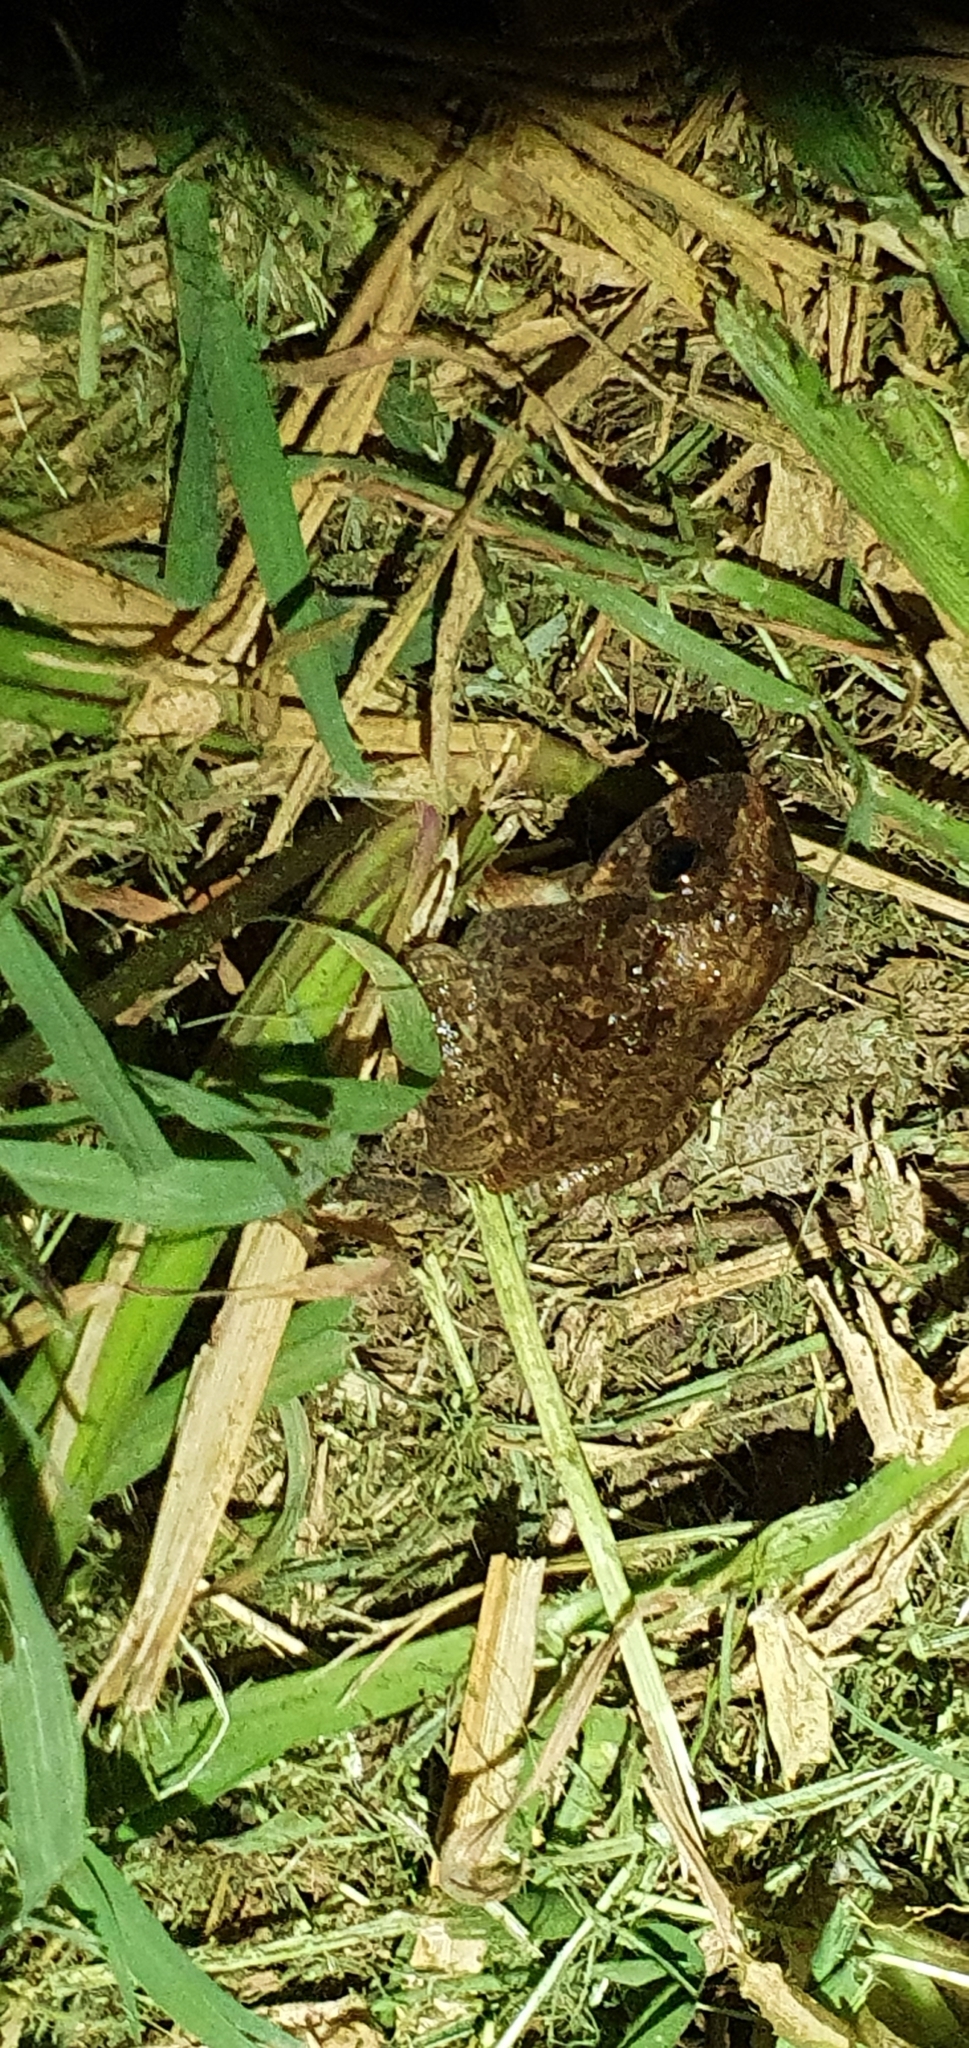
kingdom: Animalia
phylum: Chordata
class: Amphibia
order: Anura
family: Limnodynastidae
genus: Platyplectrum
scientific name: Platyplectrum ornatum
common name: Ornate burrowing frog
